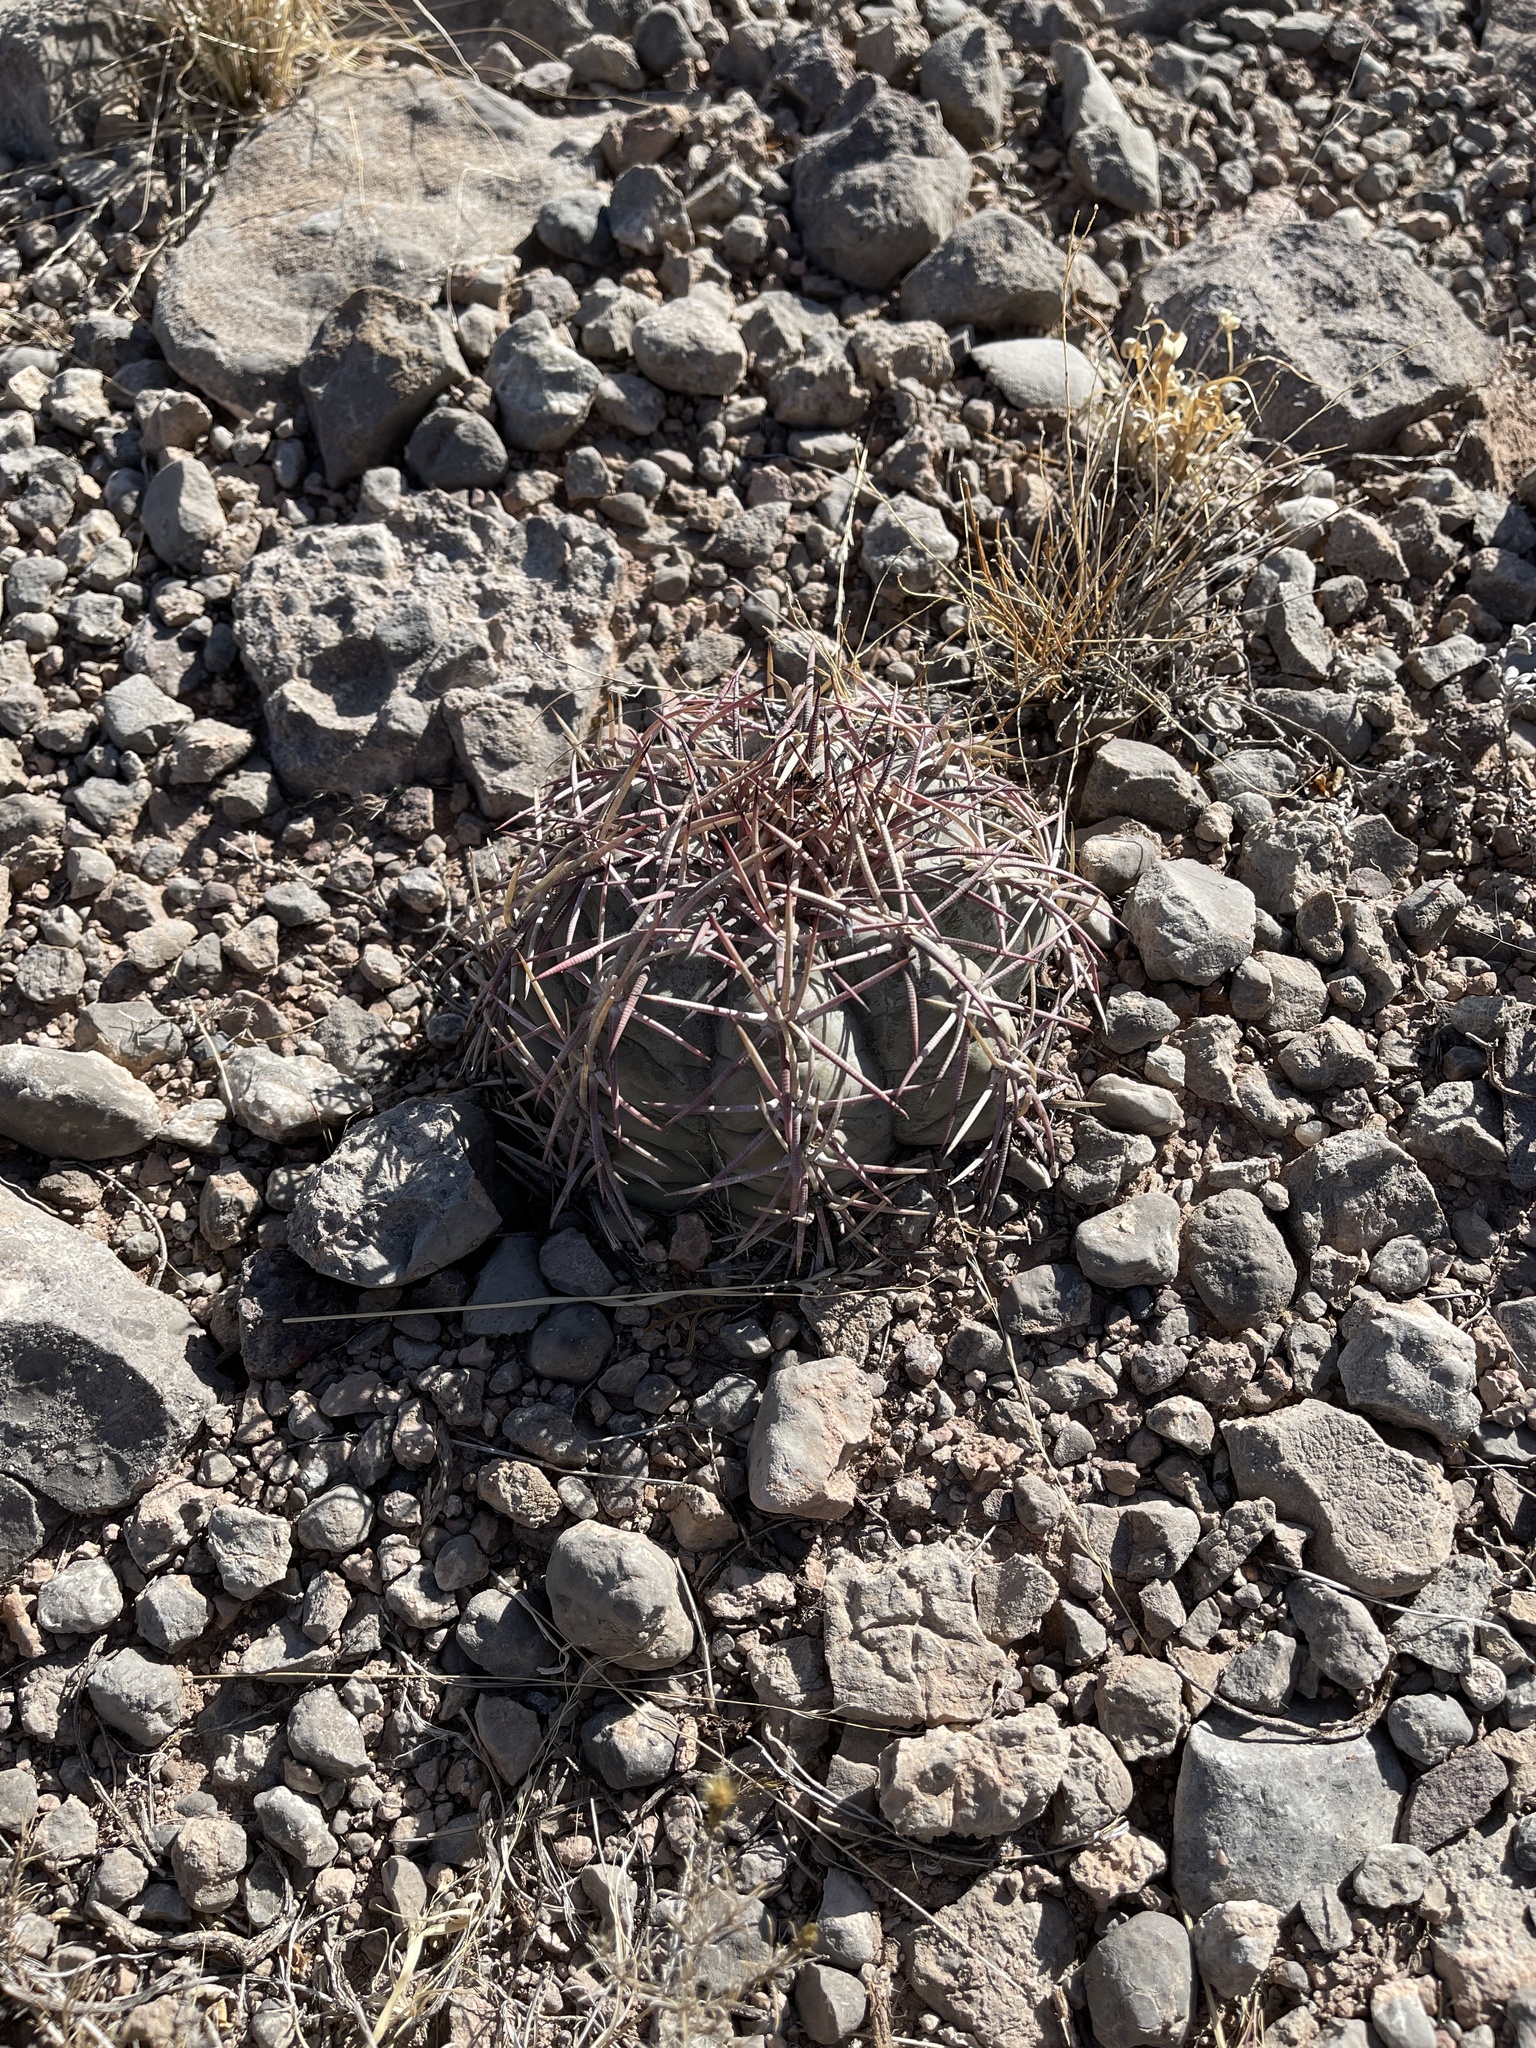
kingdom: Plantae
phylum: Tracheophyta
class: Magnoliopsida
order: Caryophyllales
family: Cactaceae
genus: Echinocactus
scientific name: Echinocactus horizonthalonius
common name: Devilshead
